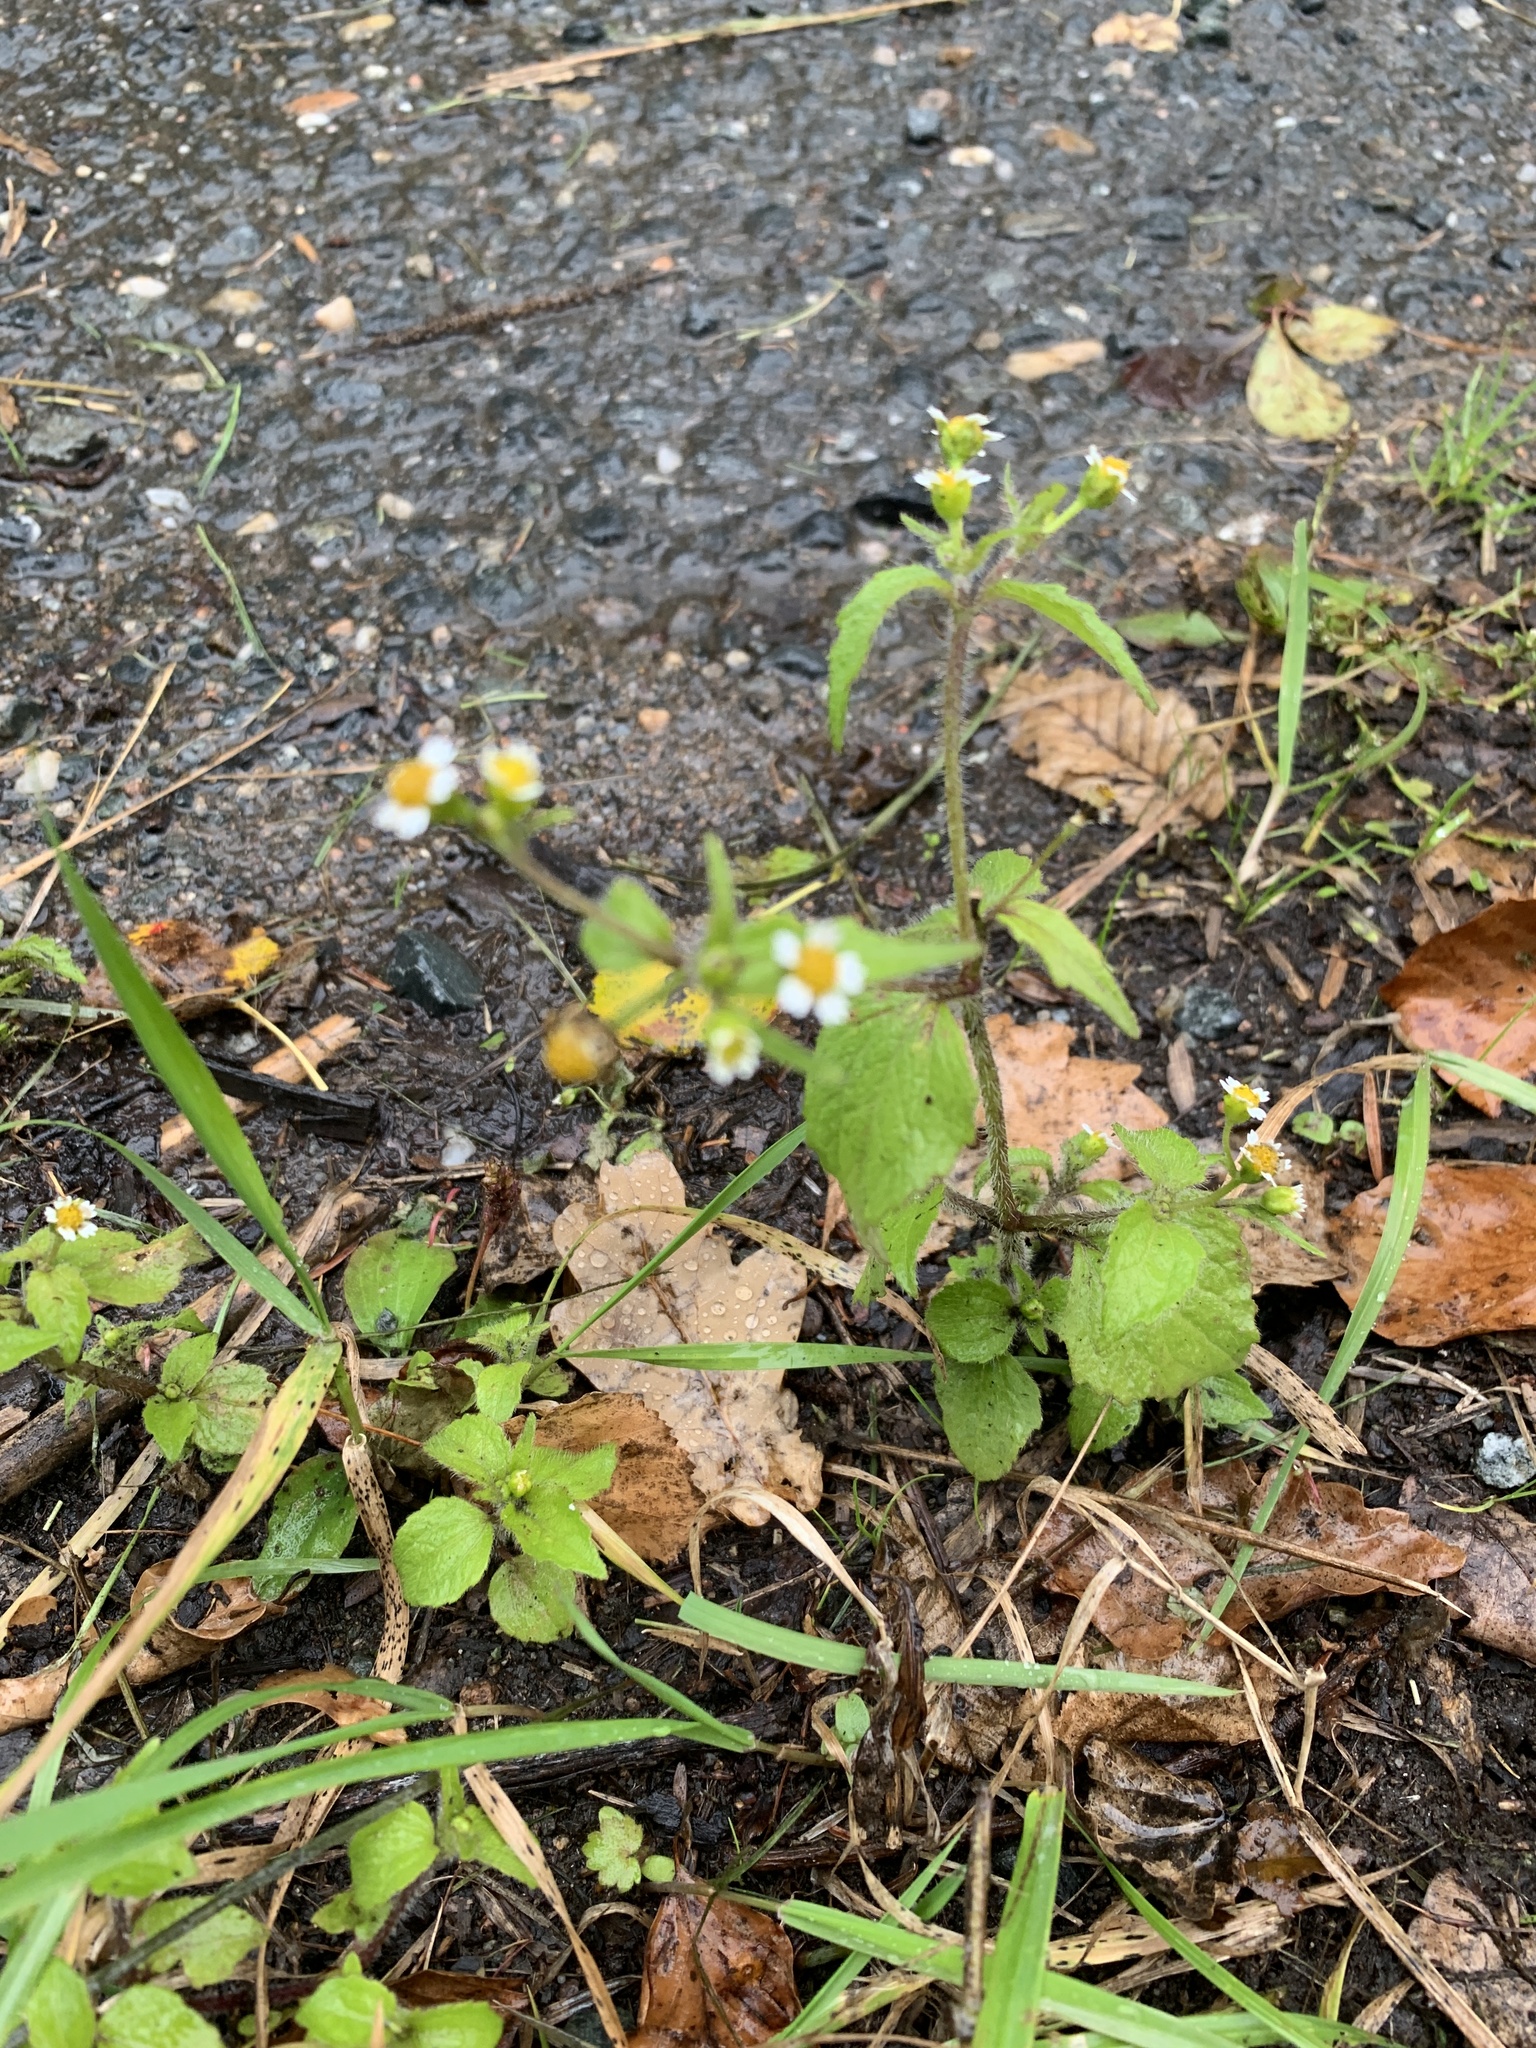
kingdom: Plantae
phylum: Tracheophyta
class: Magnoliopsida
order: Asterales
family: Asteraceae
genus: Galinsoga
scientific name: Galinsoga quadriradiata
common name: Shaggy soldier
